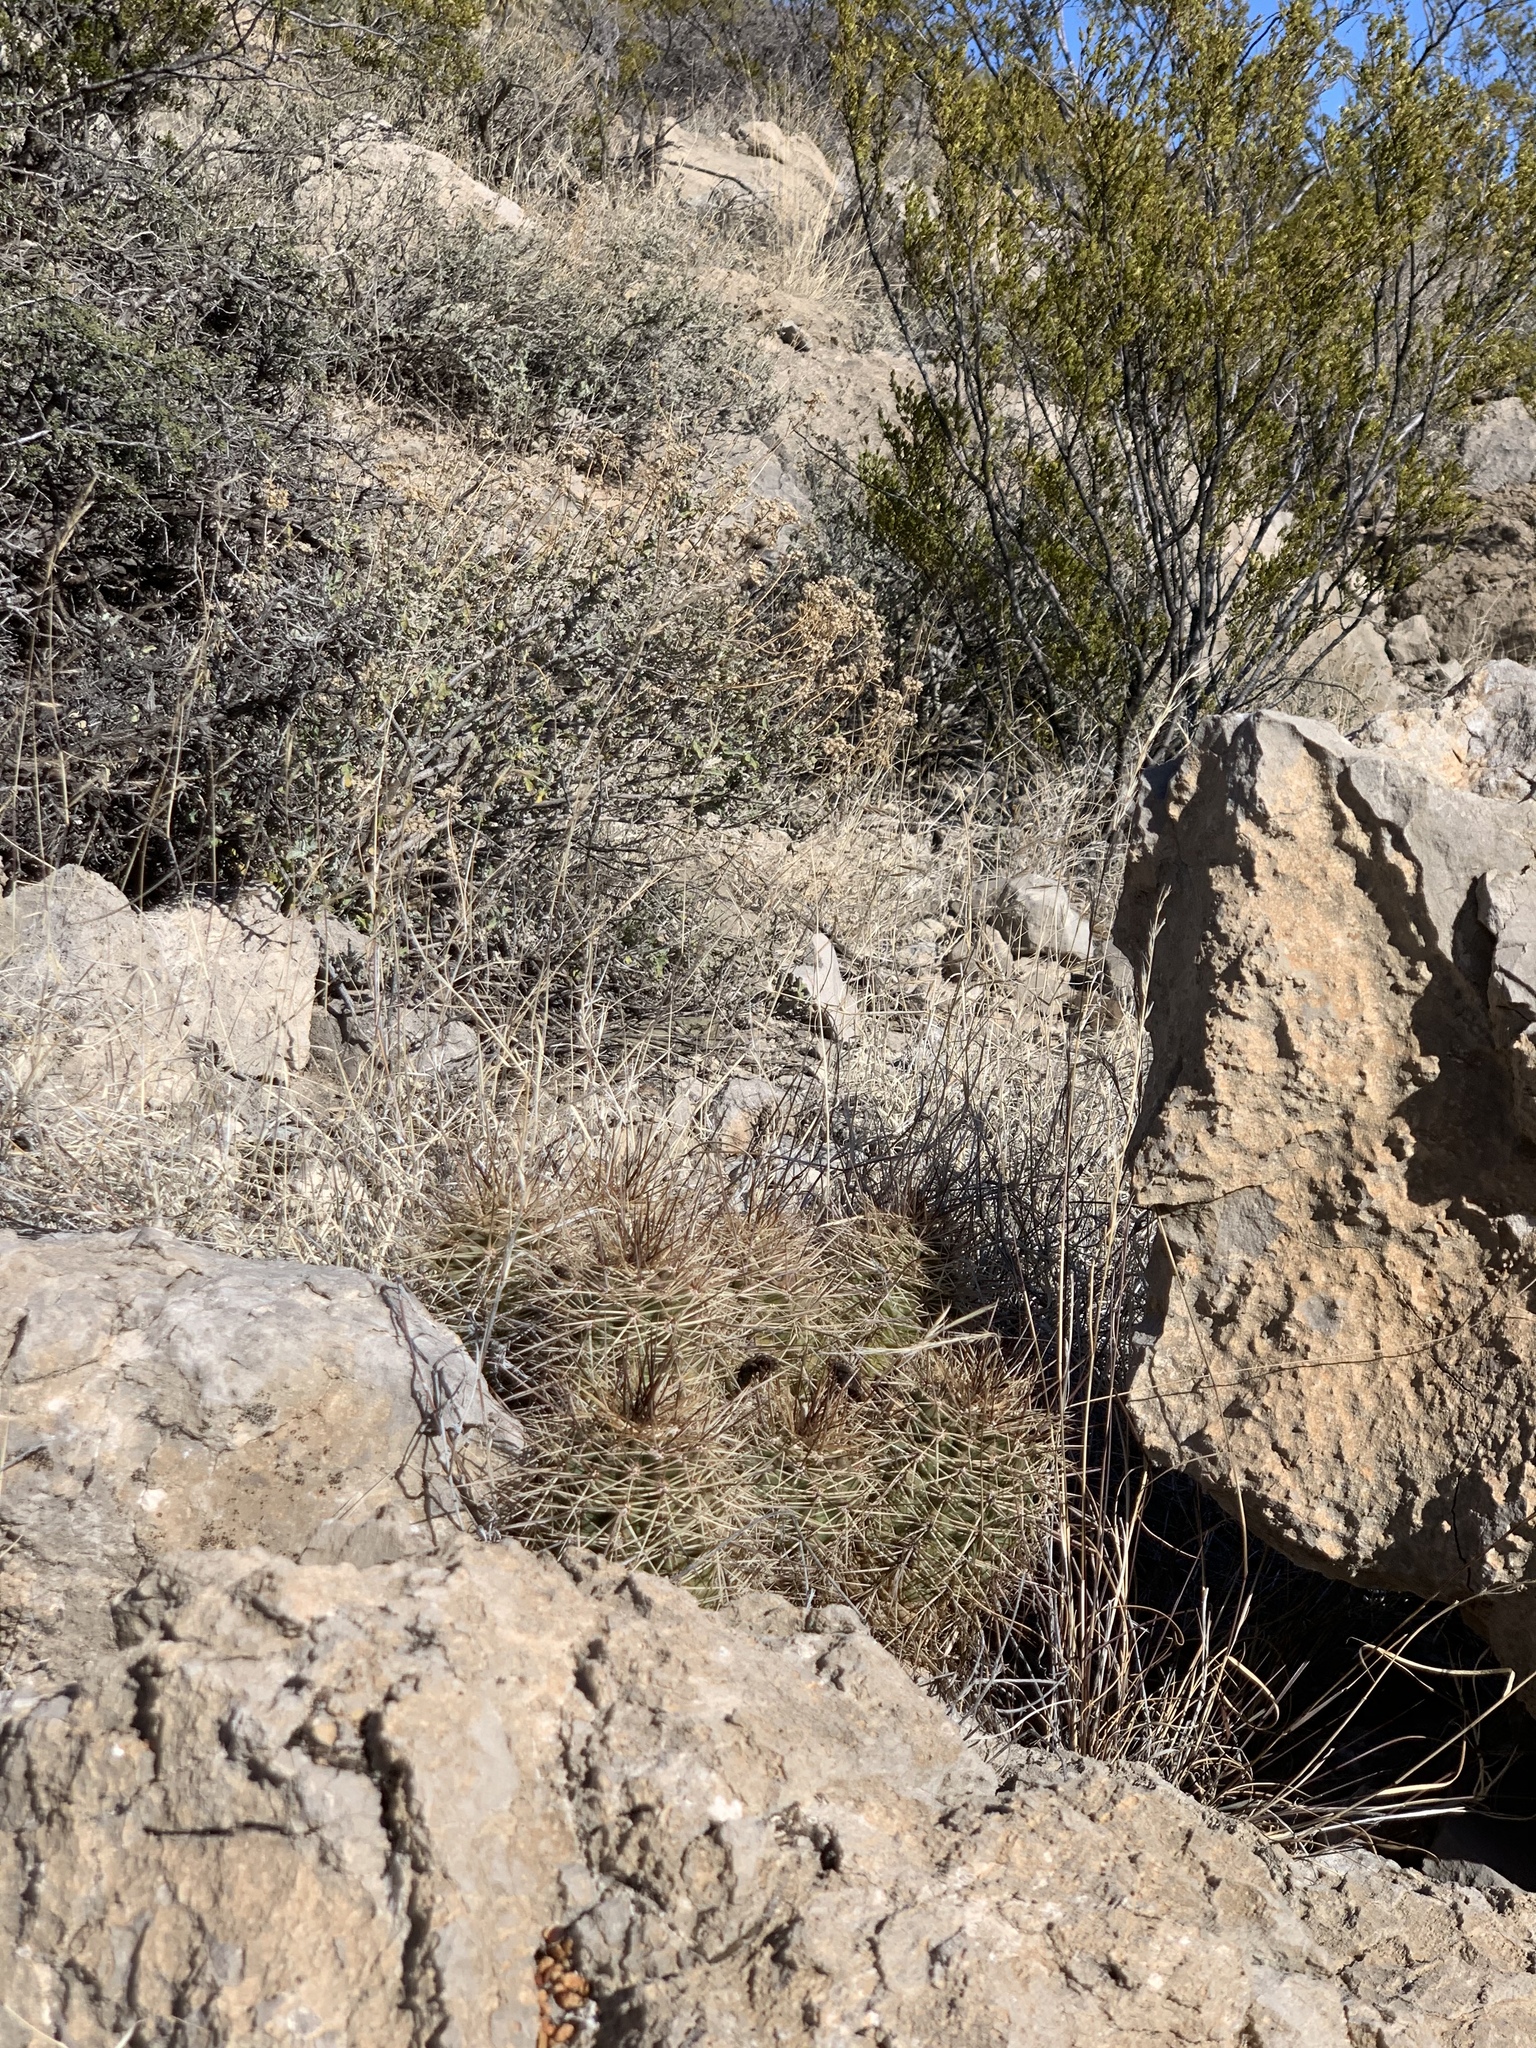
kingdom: Plantae
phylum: Tracheophyta
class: Magnoliopsida
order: Caryophyllales
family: Cactaceae
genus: Echinocereus
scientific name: Echinocereus coccineus
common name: Scarlet hedgehog cactus
